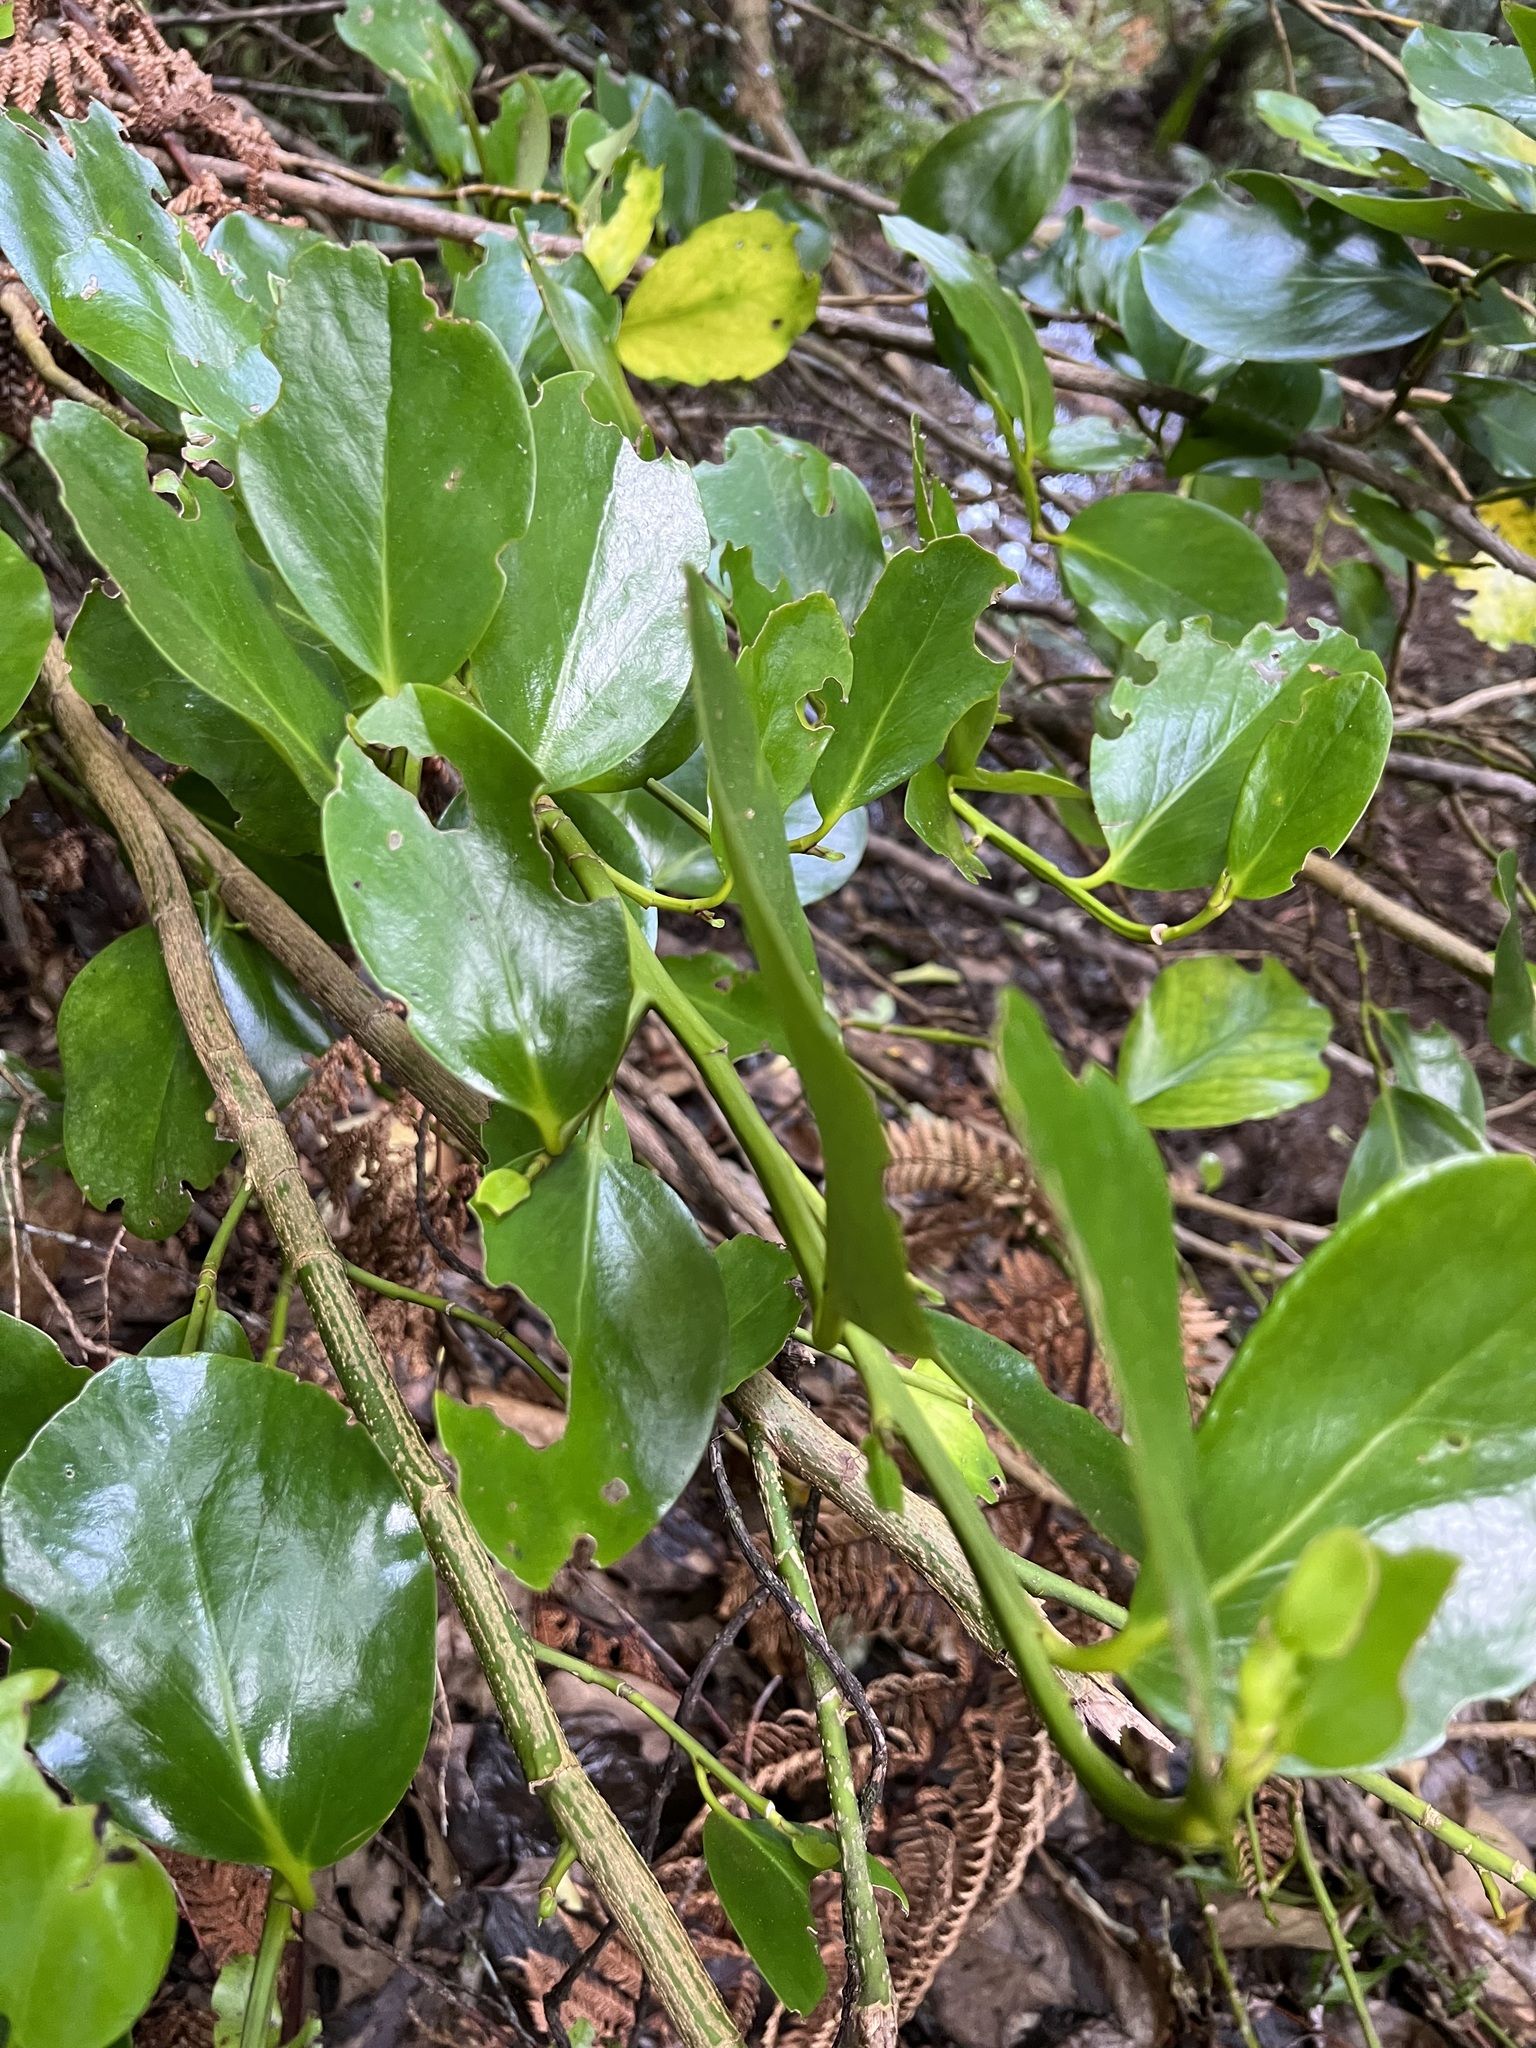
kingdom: Plantae
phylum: Tracheophyta
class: Magnoliopsida
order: Apiales
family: Griseliniaceae
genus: Griselinia
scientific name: Griselinia lucida
